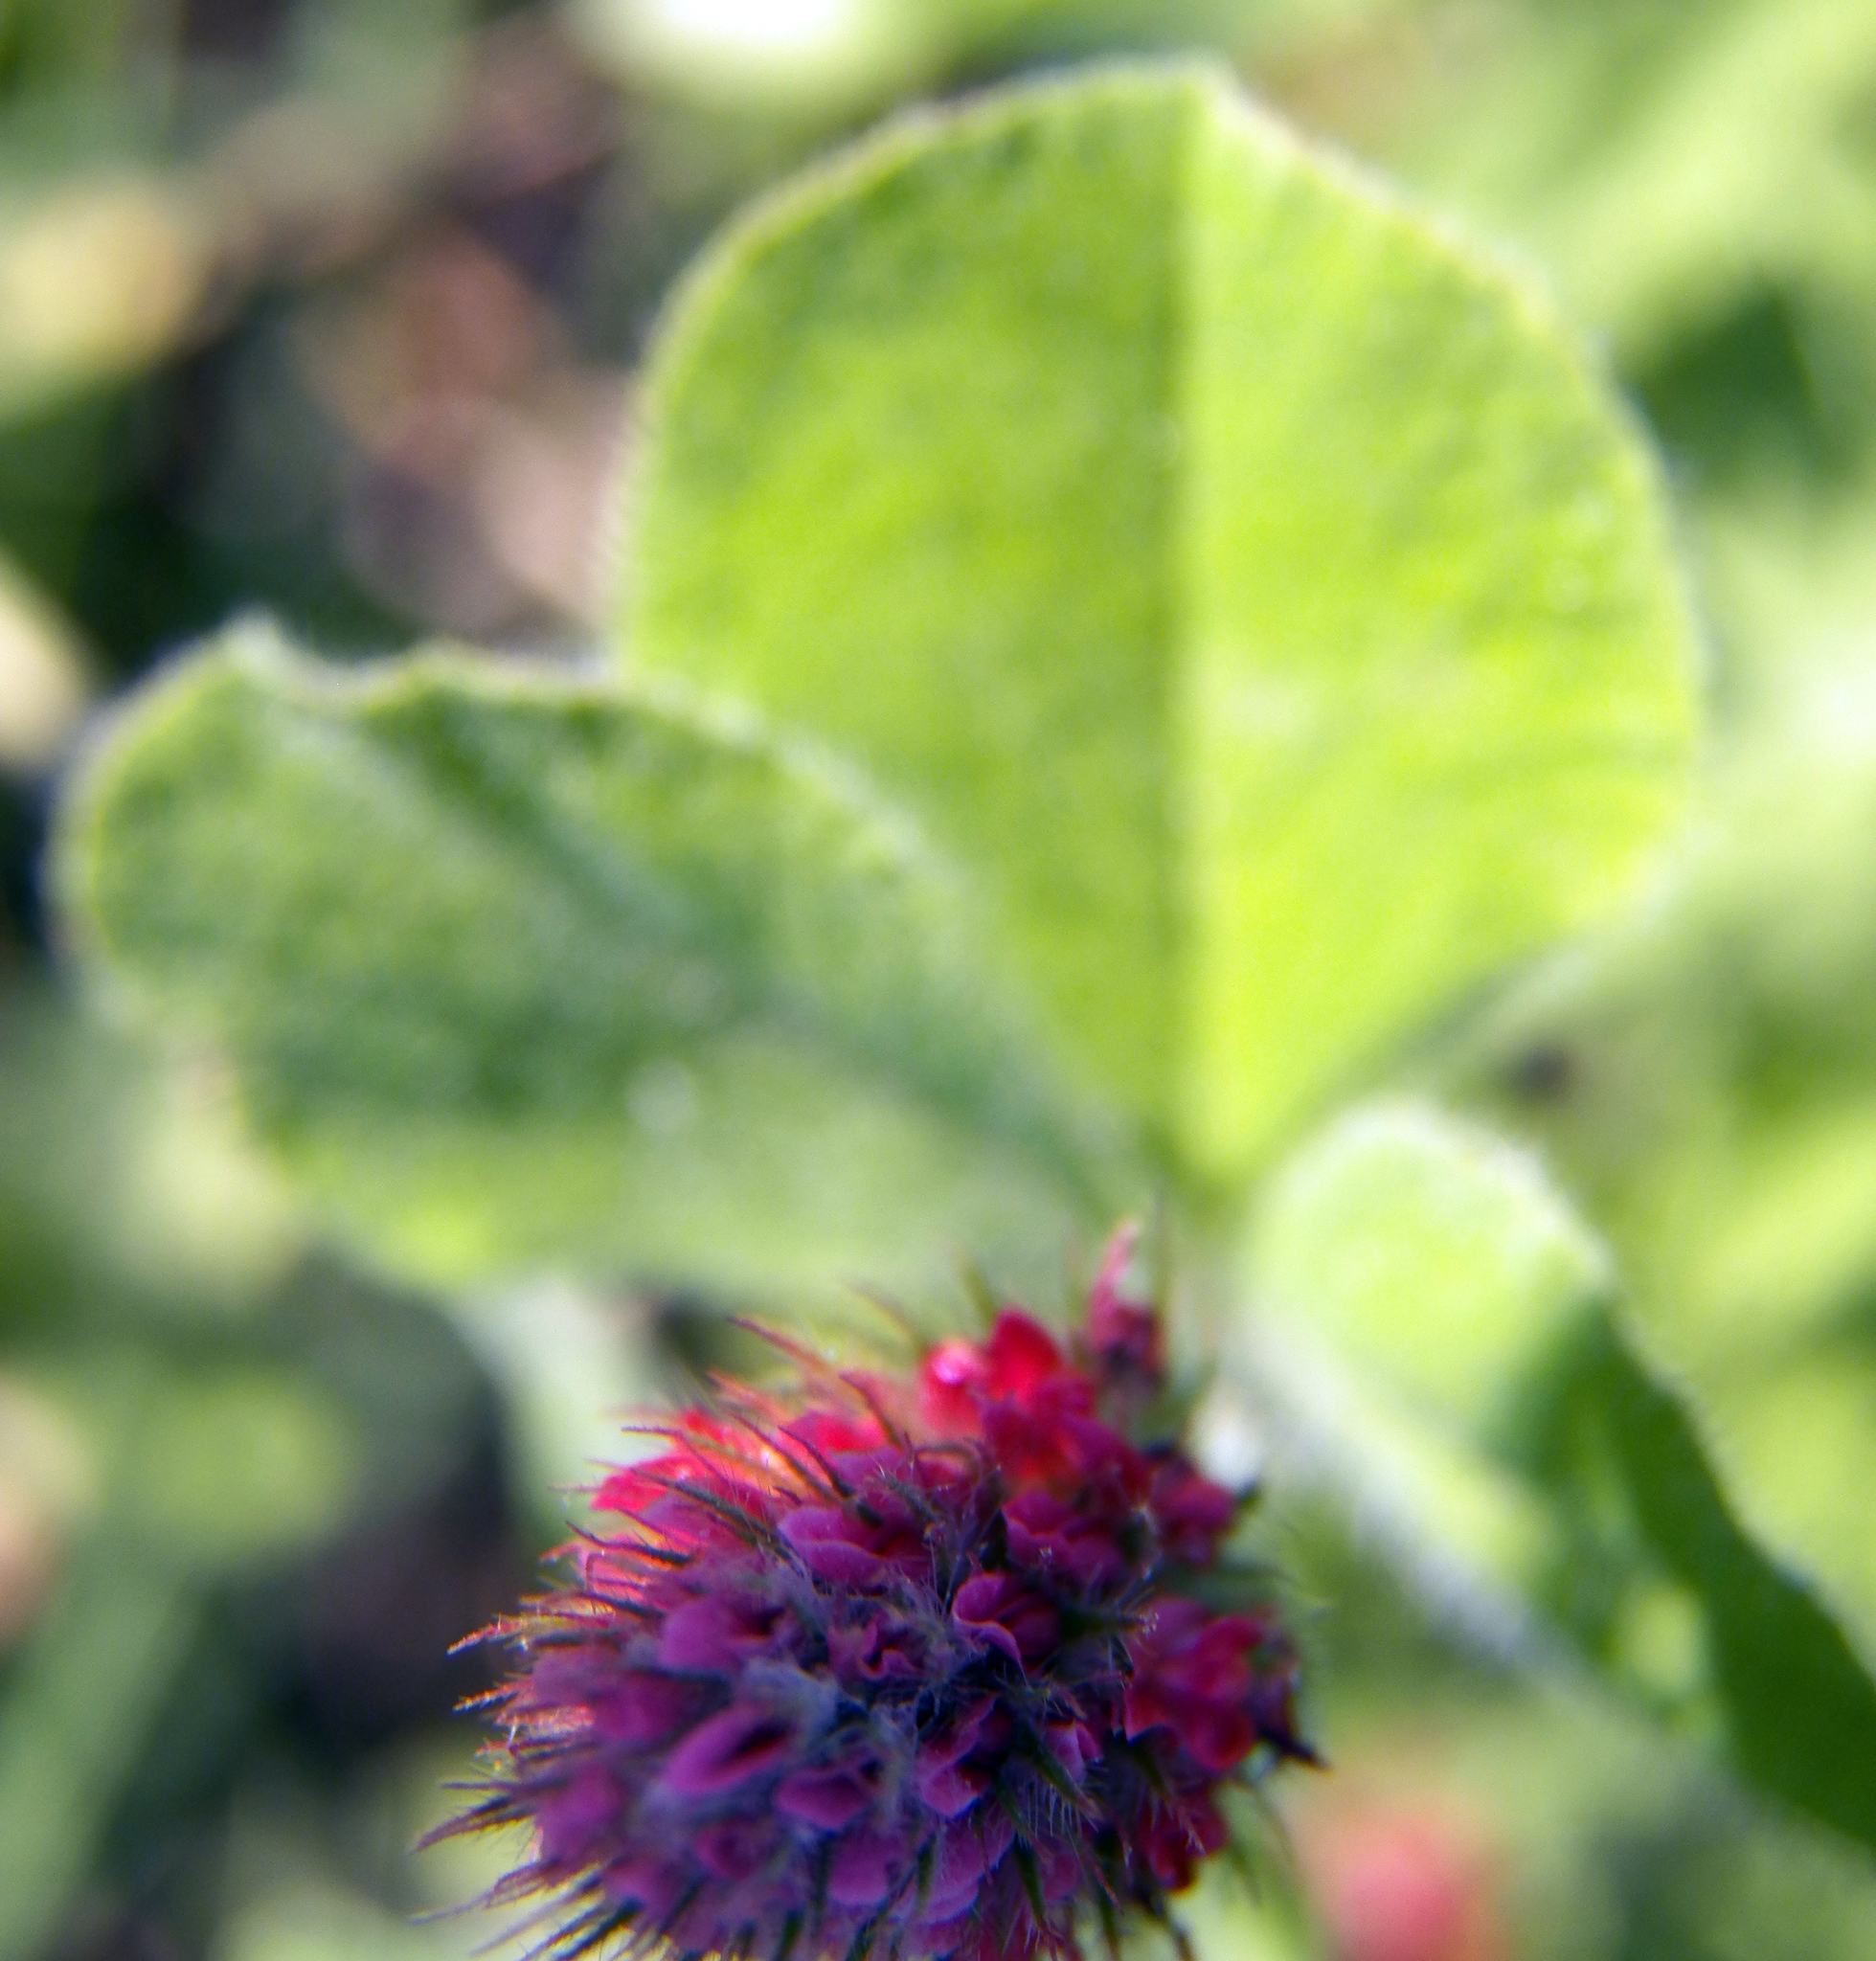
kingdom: Plantae
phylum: Tracheophyta
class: Magnoliopsida
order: Fabales
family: Fabaceae
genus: Trifolium
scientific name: Trifolium incarnatum
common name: Crimson clover
